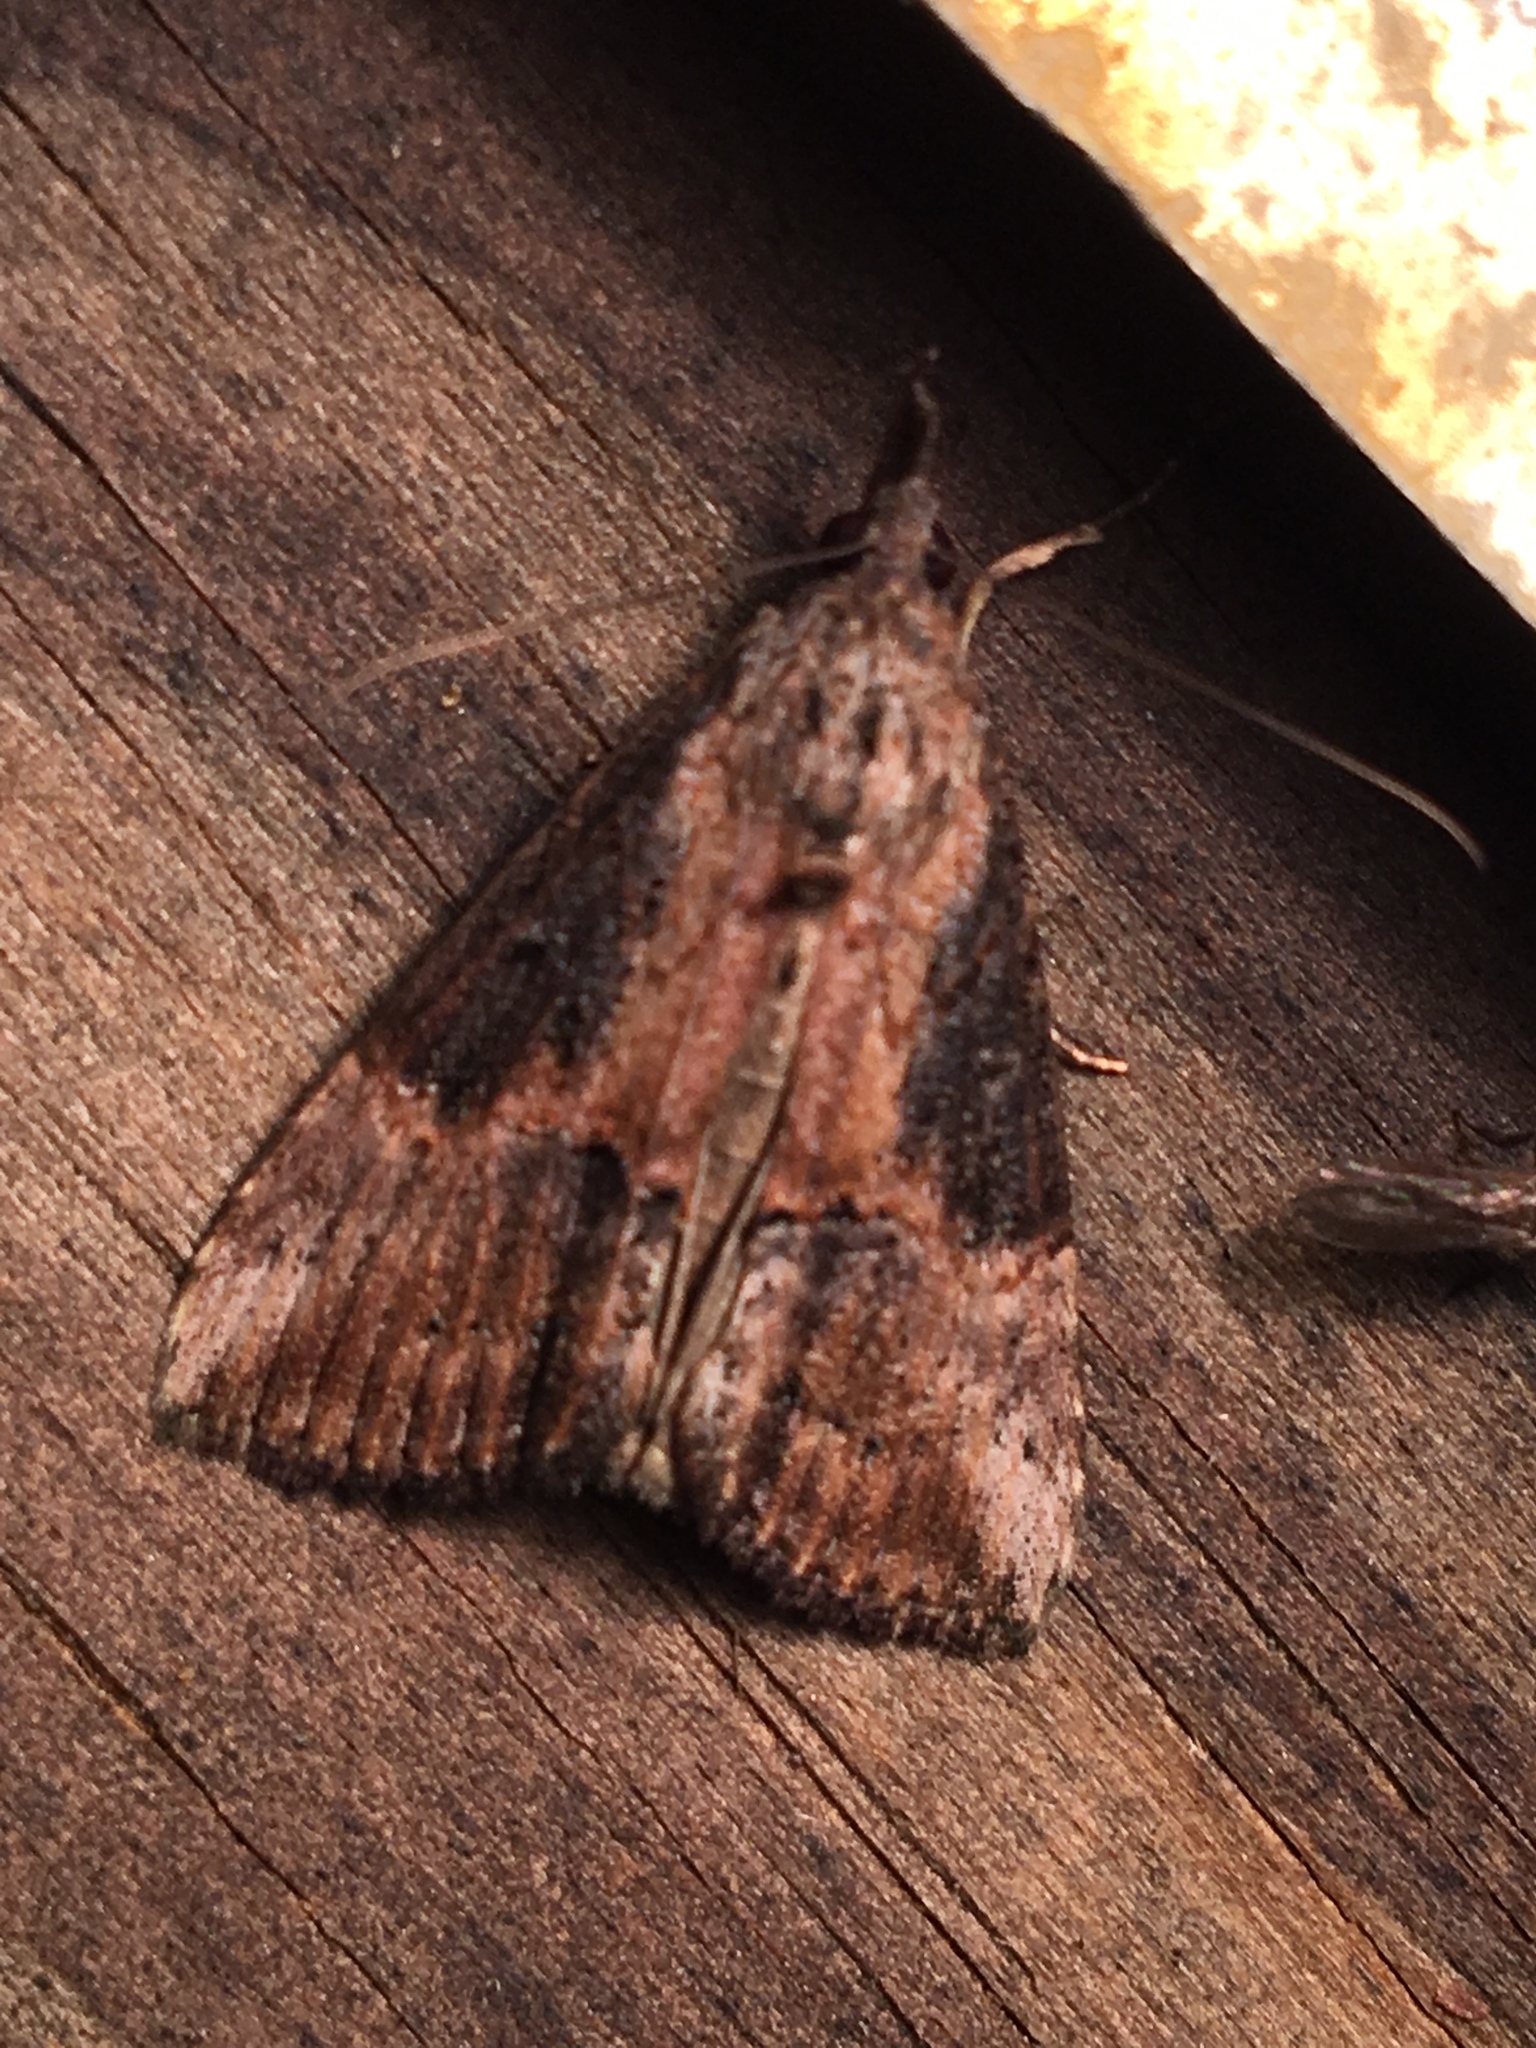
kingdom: Animalia
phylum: Arthropoda
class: Insecta
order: Lepidoptera
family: Erebidae
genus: Hypena
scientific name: Hypena scabra
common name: Green cloverworm
